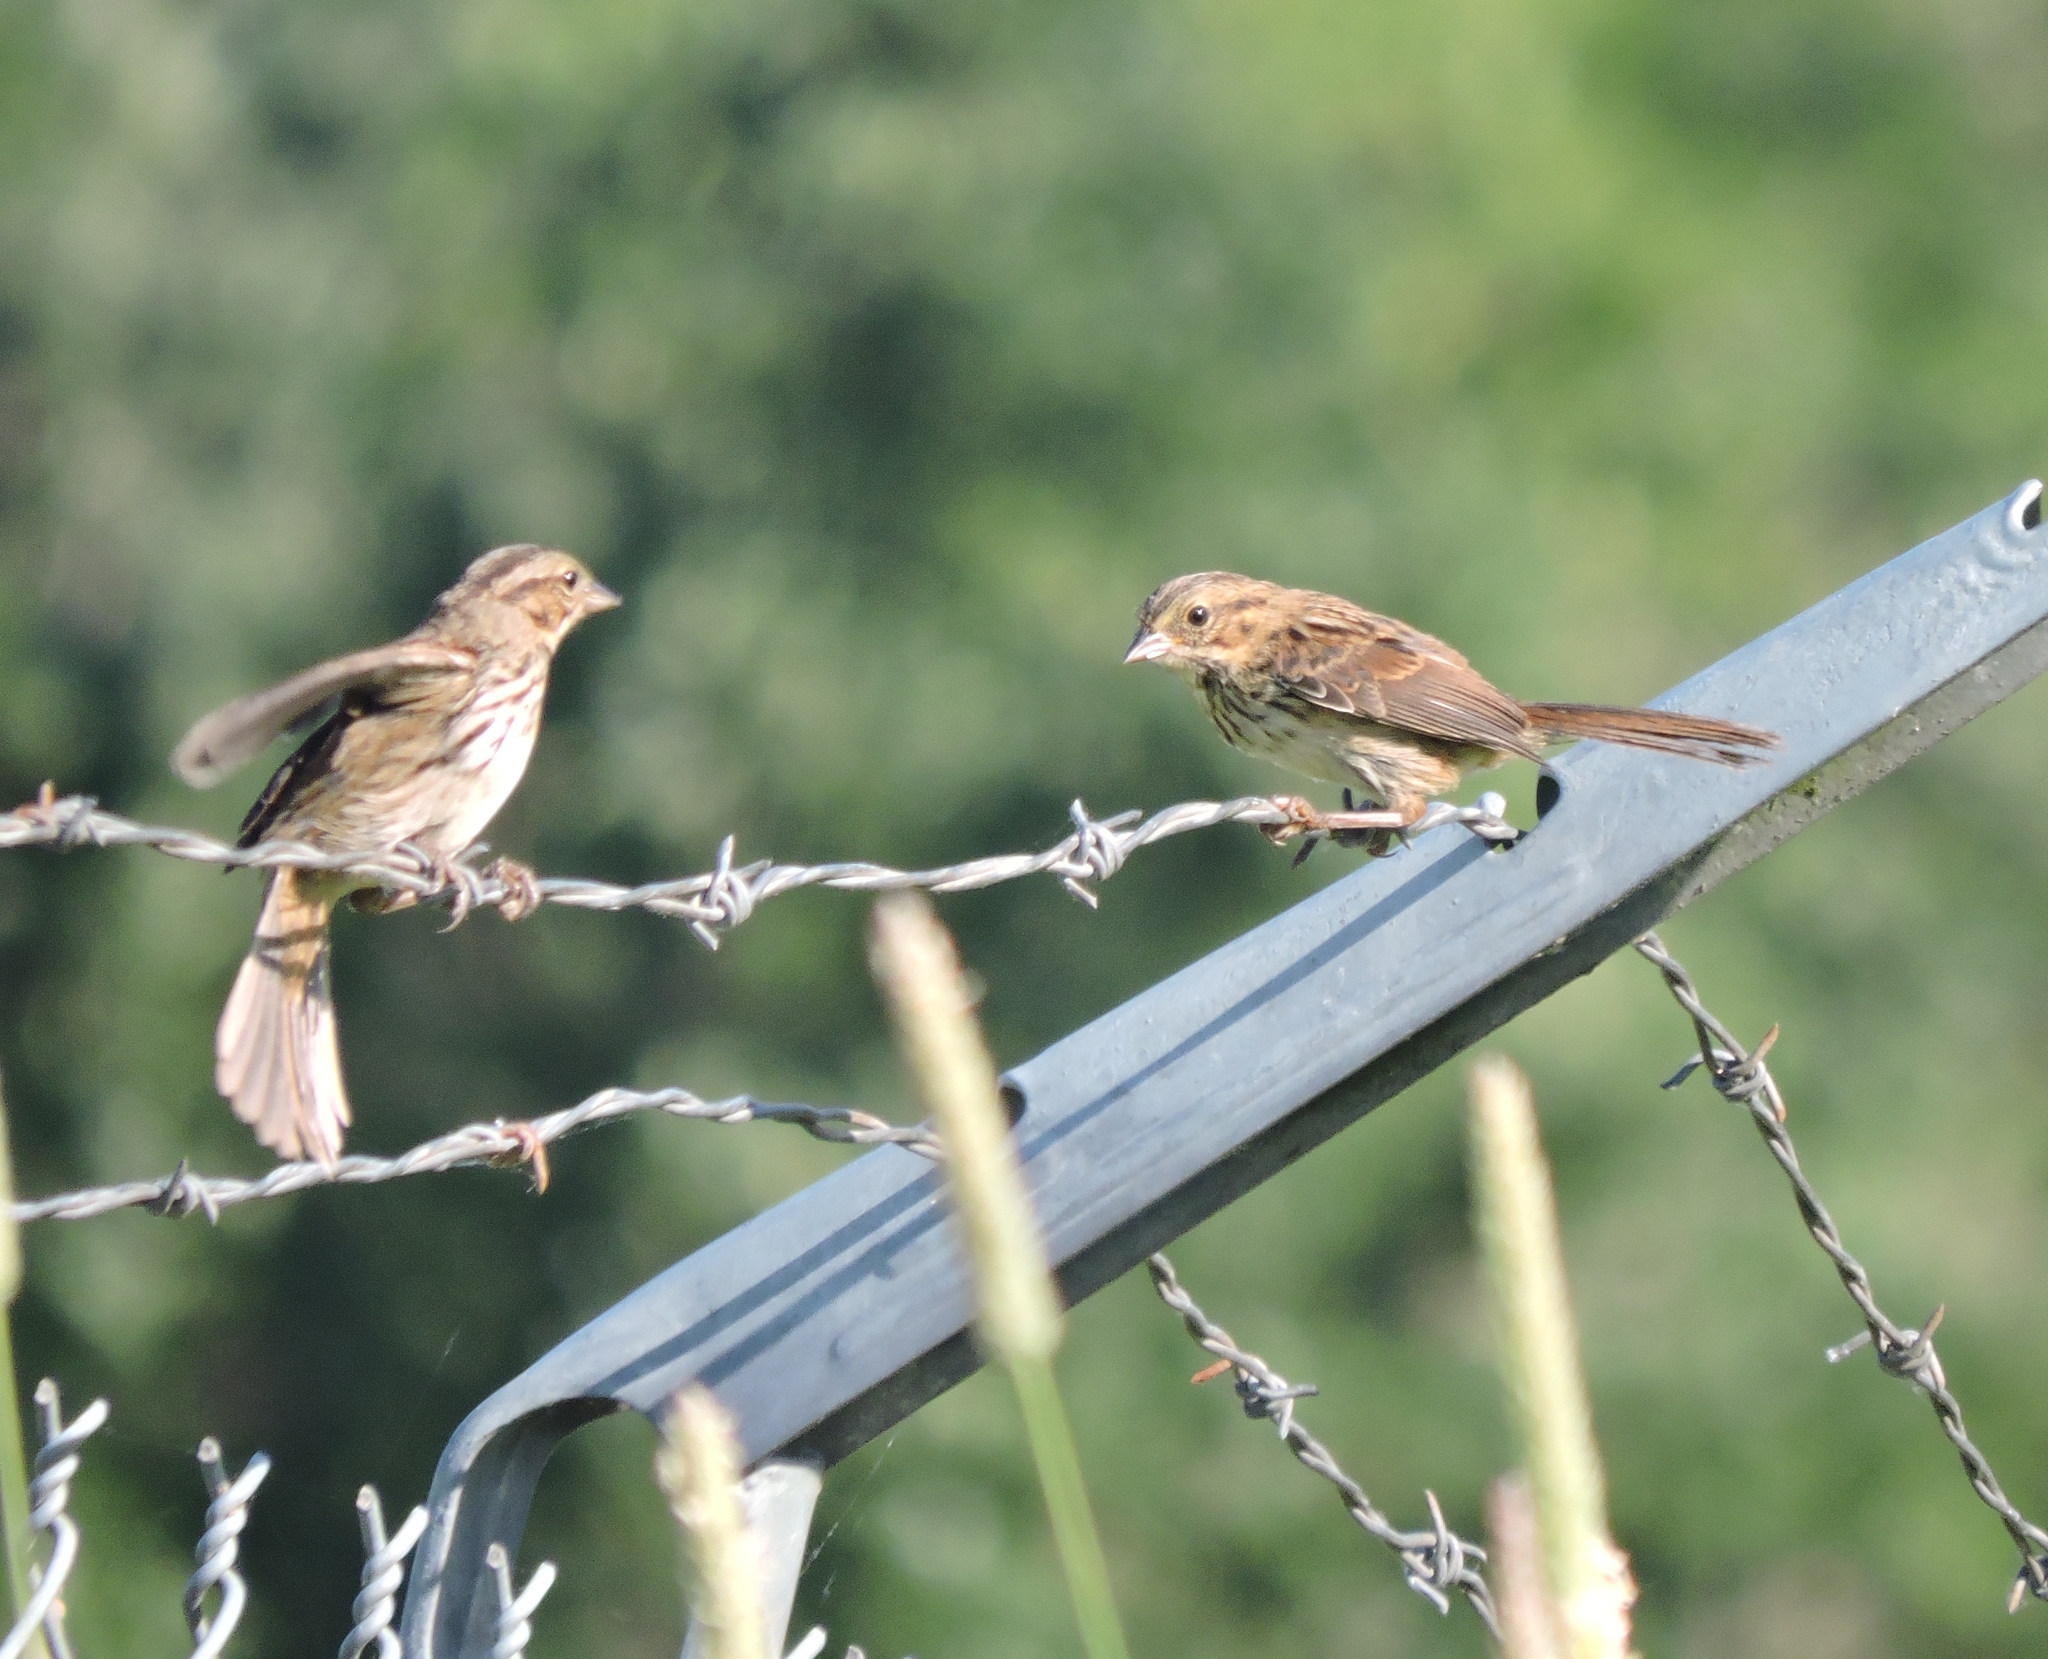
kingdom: Animalia
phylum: Chordata
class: Aves
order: Passeriformes
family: Passerellidae
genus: Melospiza
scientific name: Melospiza melodia
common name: Song sparrow
